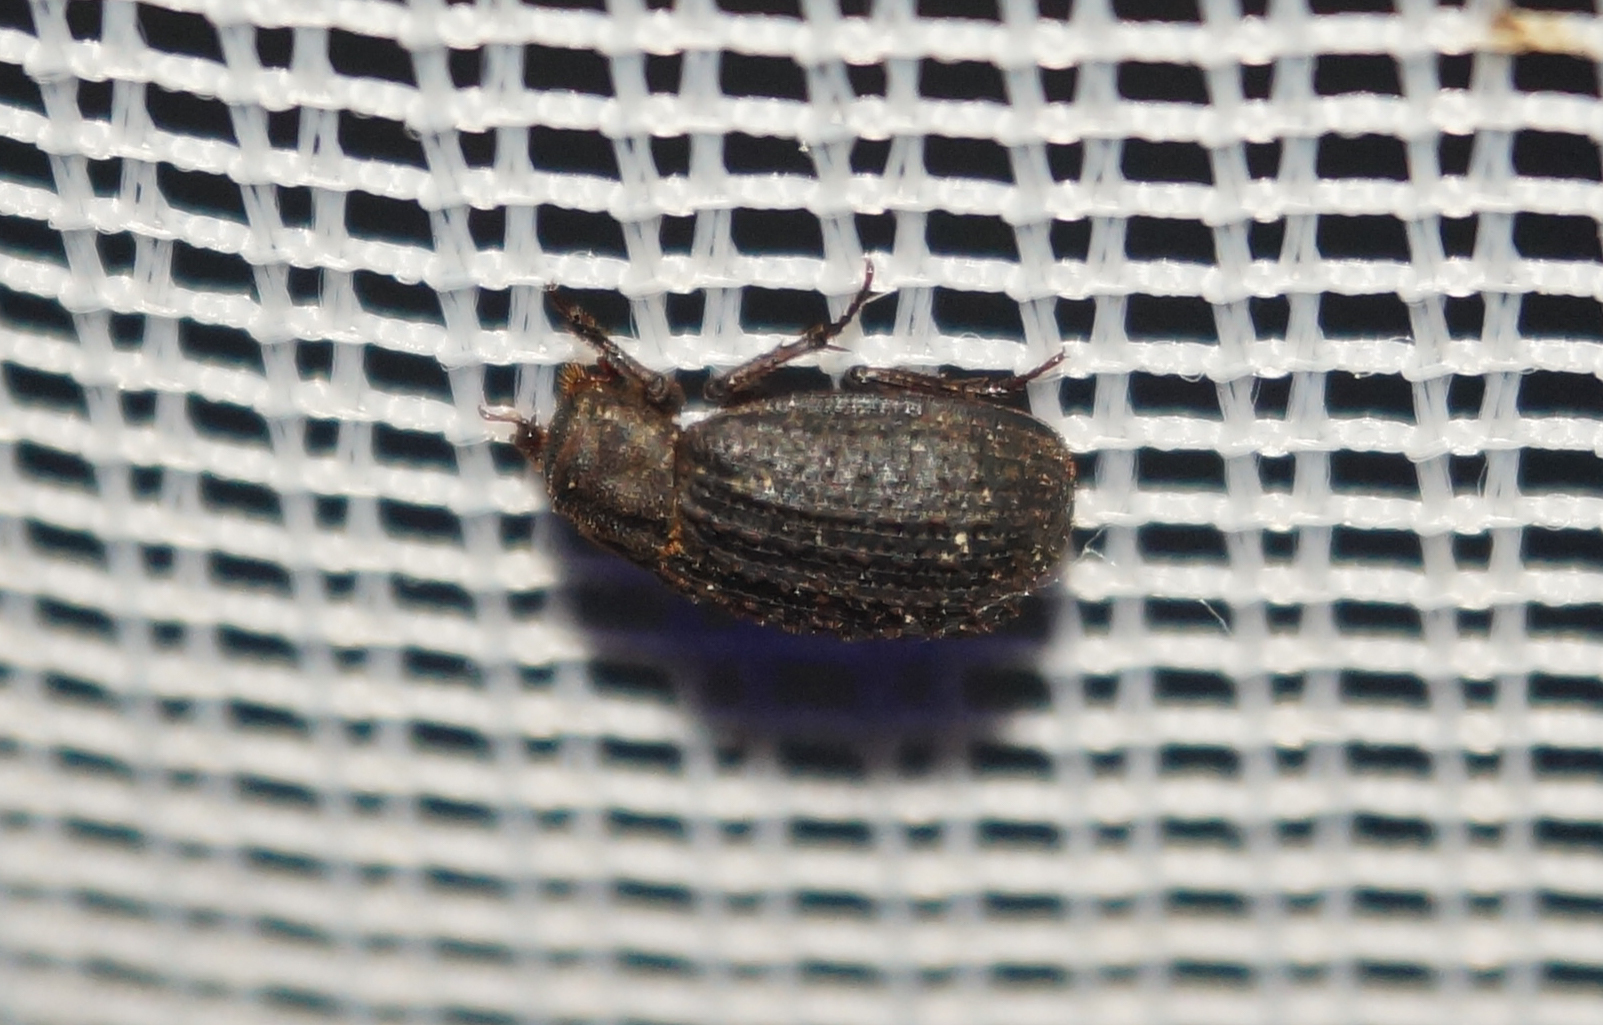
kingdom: Animalia
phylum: Arthropoda
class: Insecta
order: Coleoptera
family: Trogidae
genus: Trox
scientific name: Trox scaber
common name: Hide beetle
